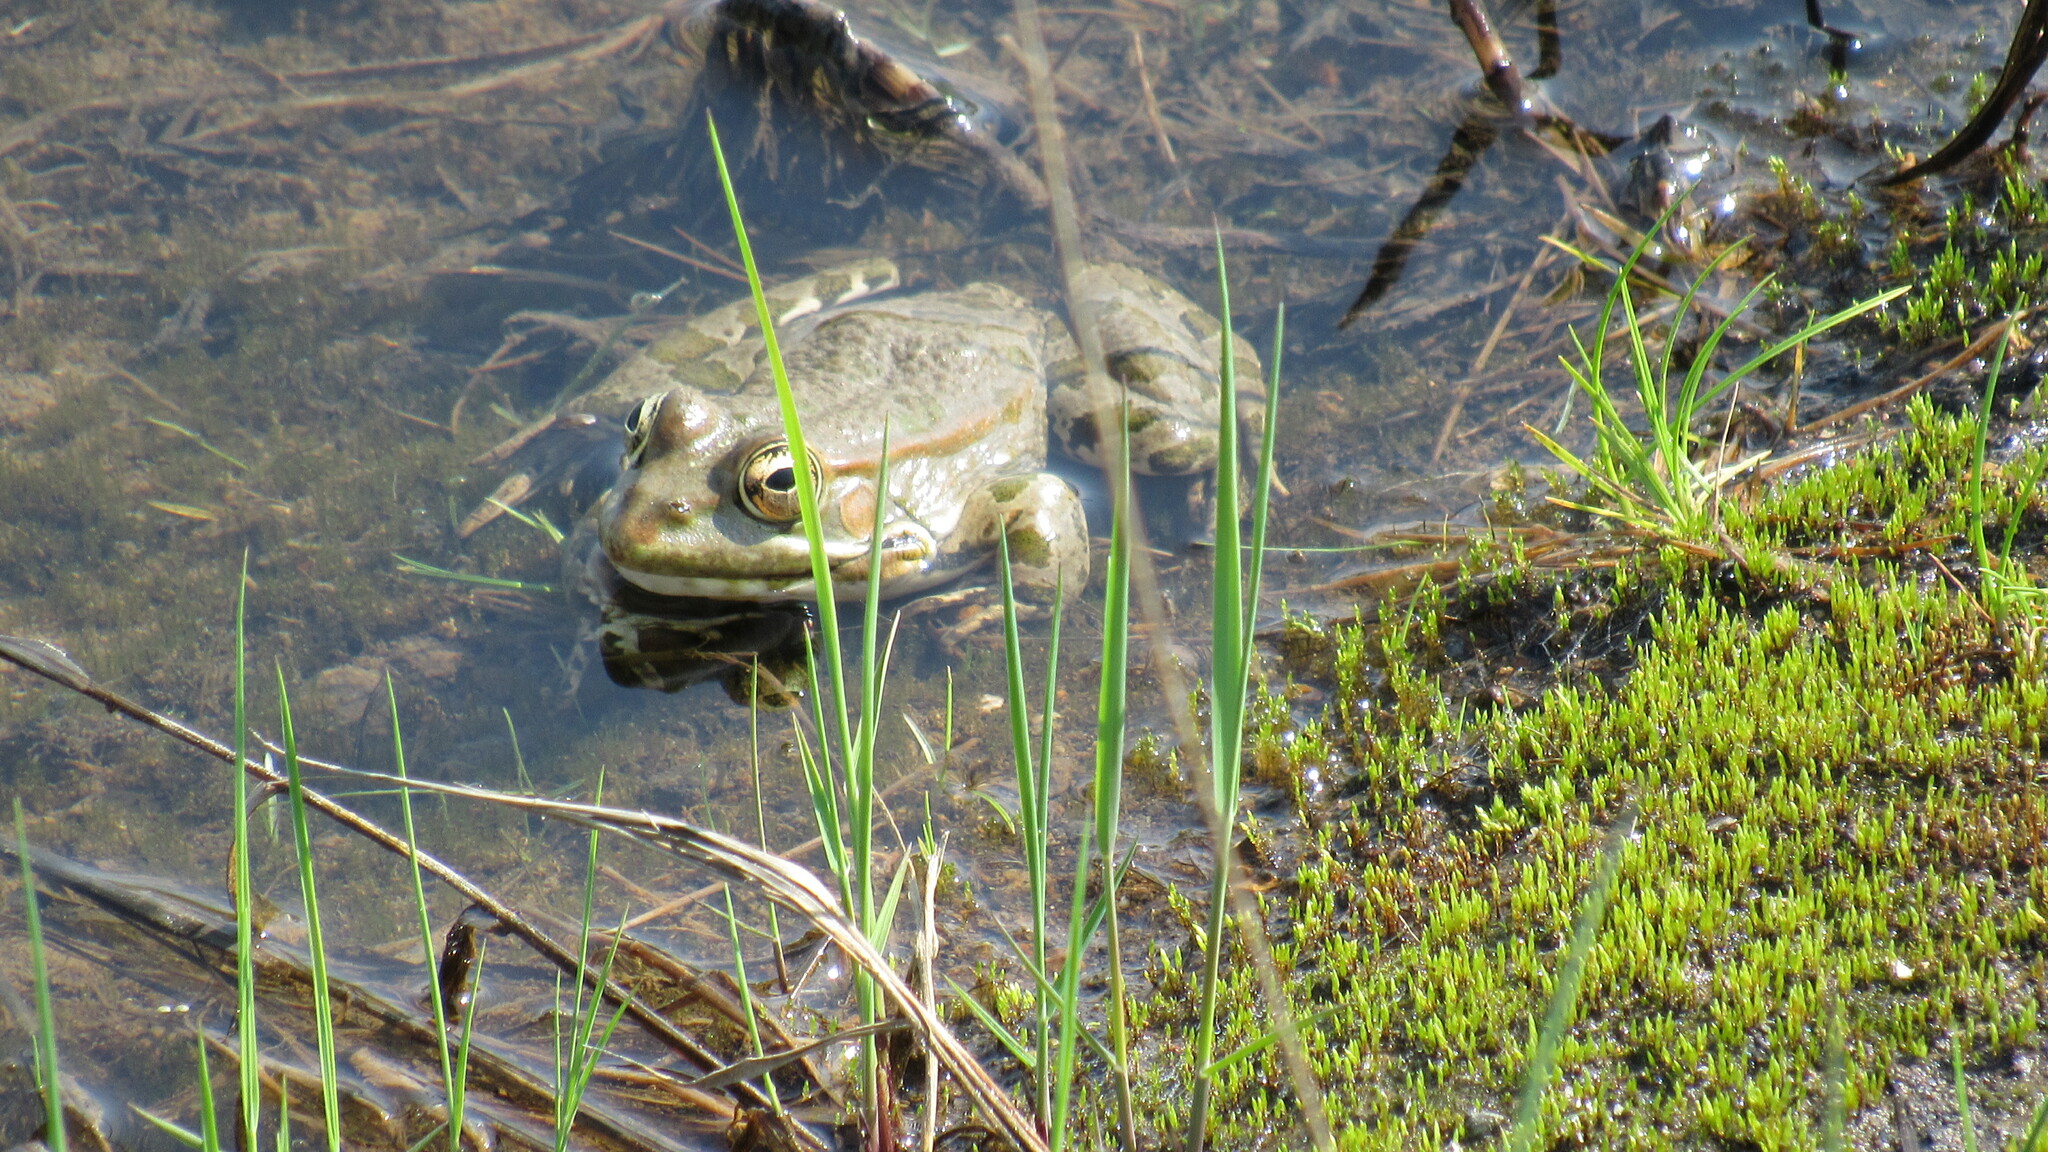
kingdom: Animalia
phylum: Chordata
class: Amphibia
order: Anura
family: Ranidae
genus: Pelophylax
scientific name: Pelophylax ridibundus
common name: Marsh frog
